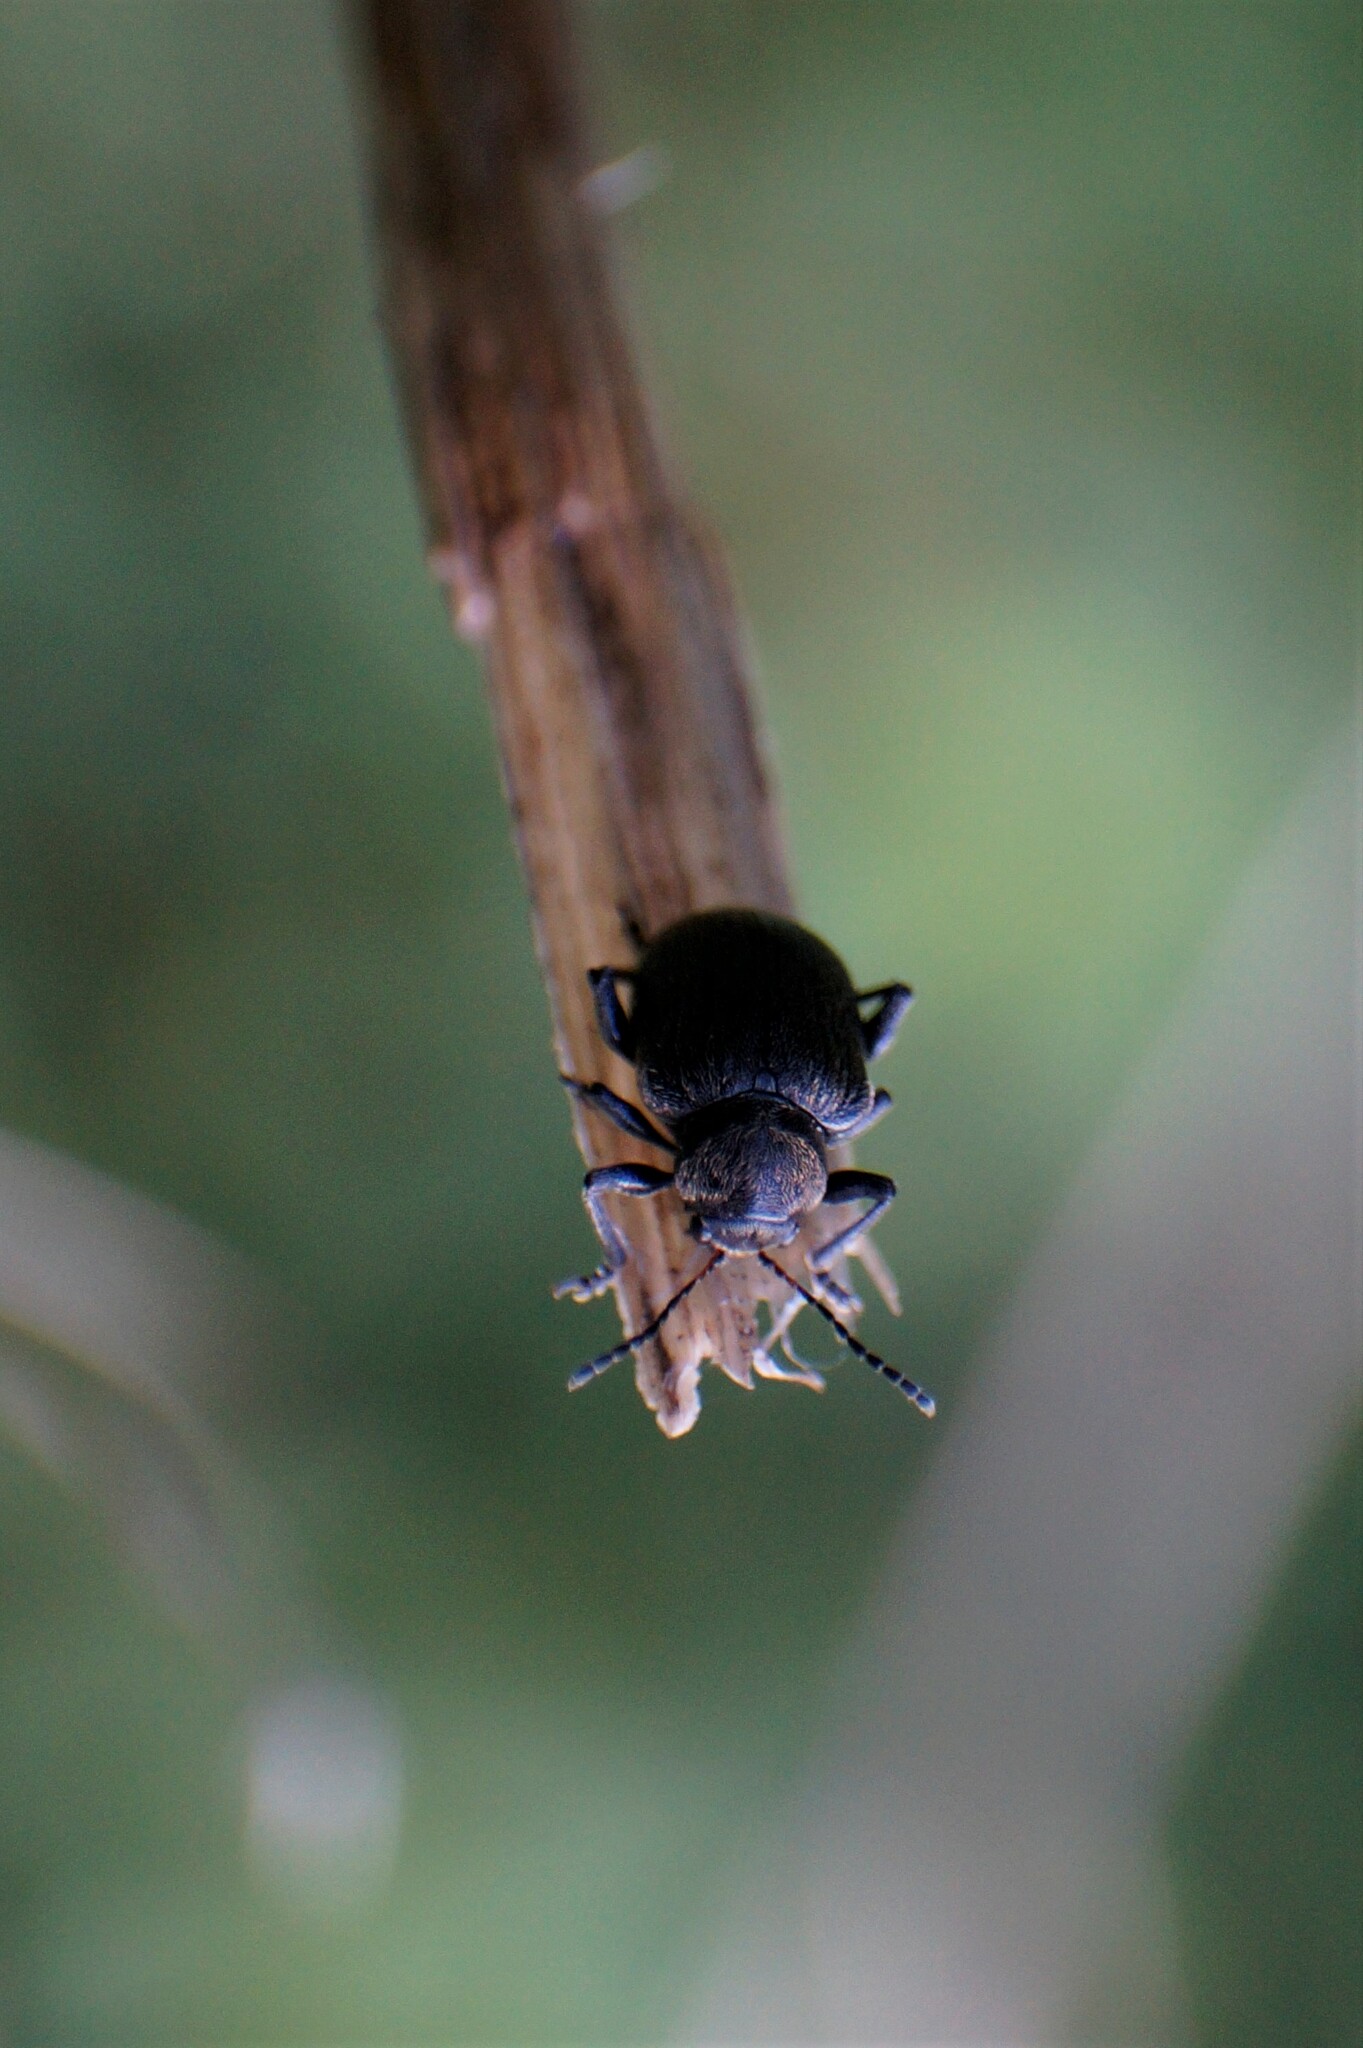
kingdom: Animalia
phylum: Arthropoda
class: Insecta
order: Coleoptera
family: Chrysomelidae
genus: Bromius
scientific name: Bromius obscurus
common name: Western grape rootworm
